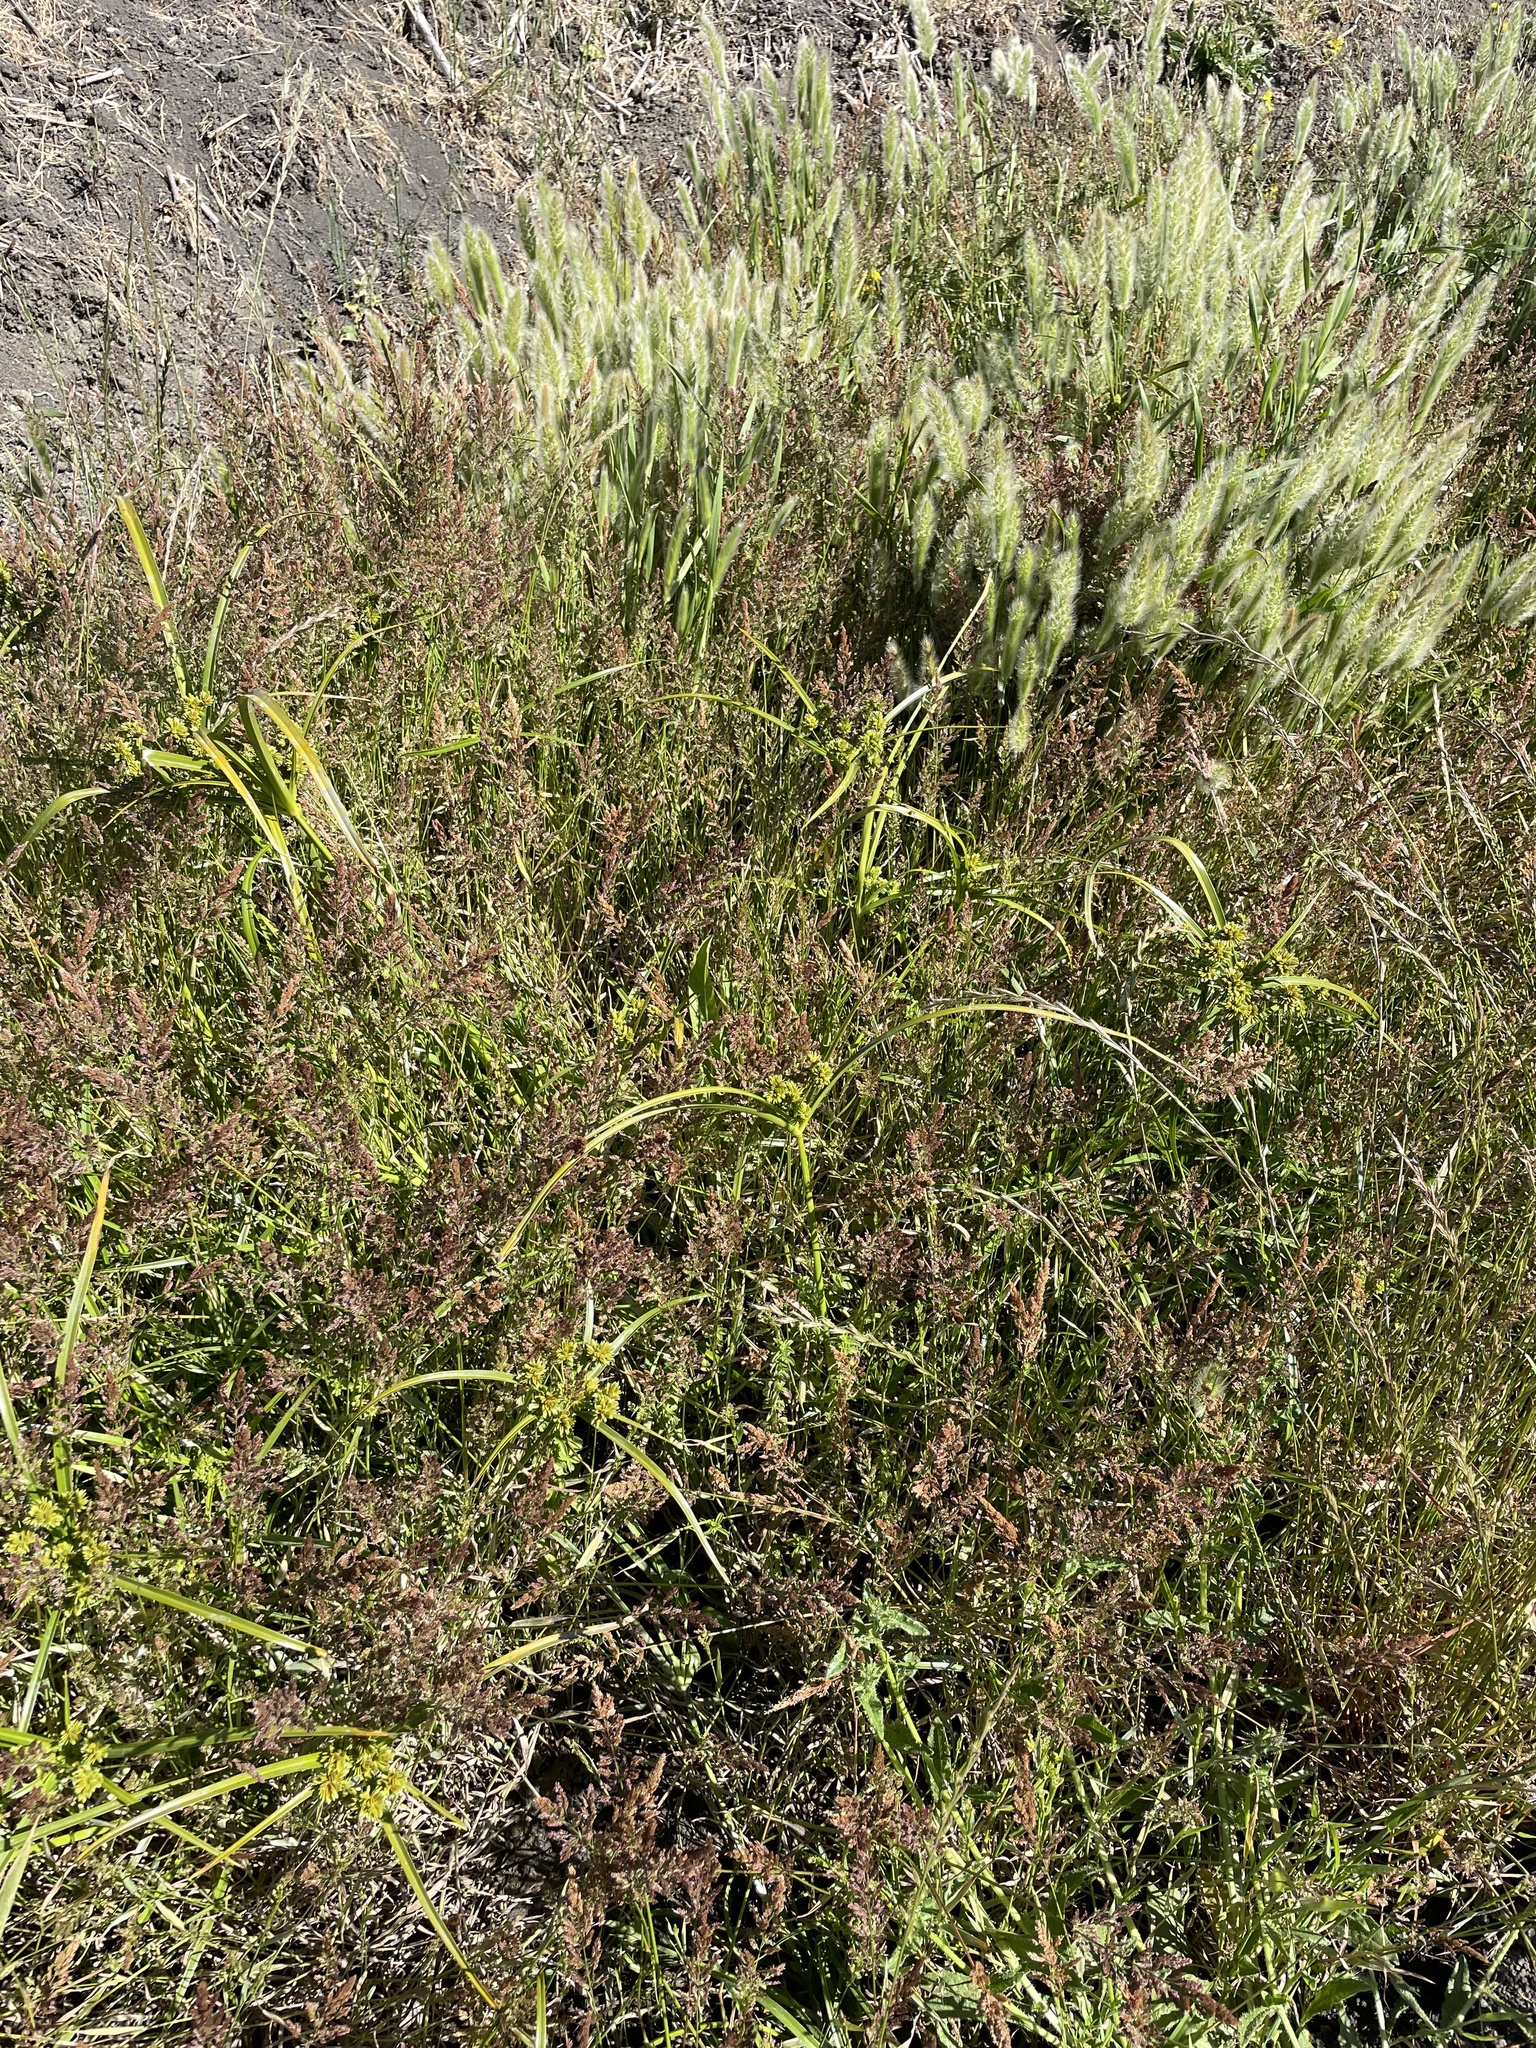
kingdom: Plantae
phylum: Tracheophyta
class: Liliopsida
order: Poales
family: Poaceae
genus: Polypogon
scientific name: Polypogon monspeliensis
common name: Annual rabbitsfoot grass
